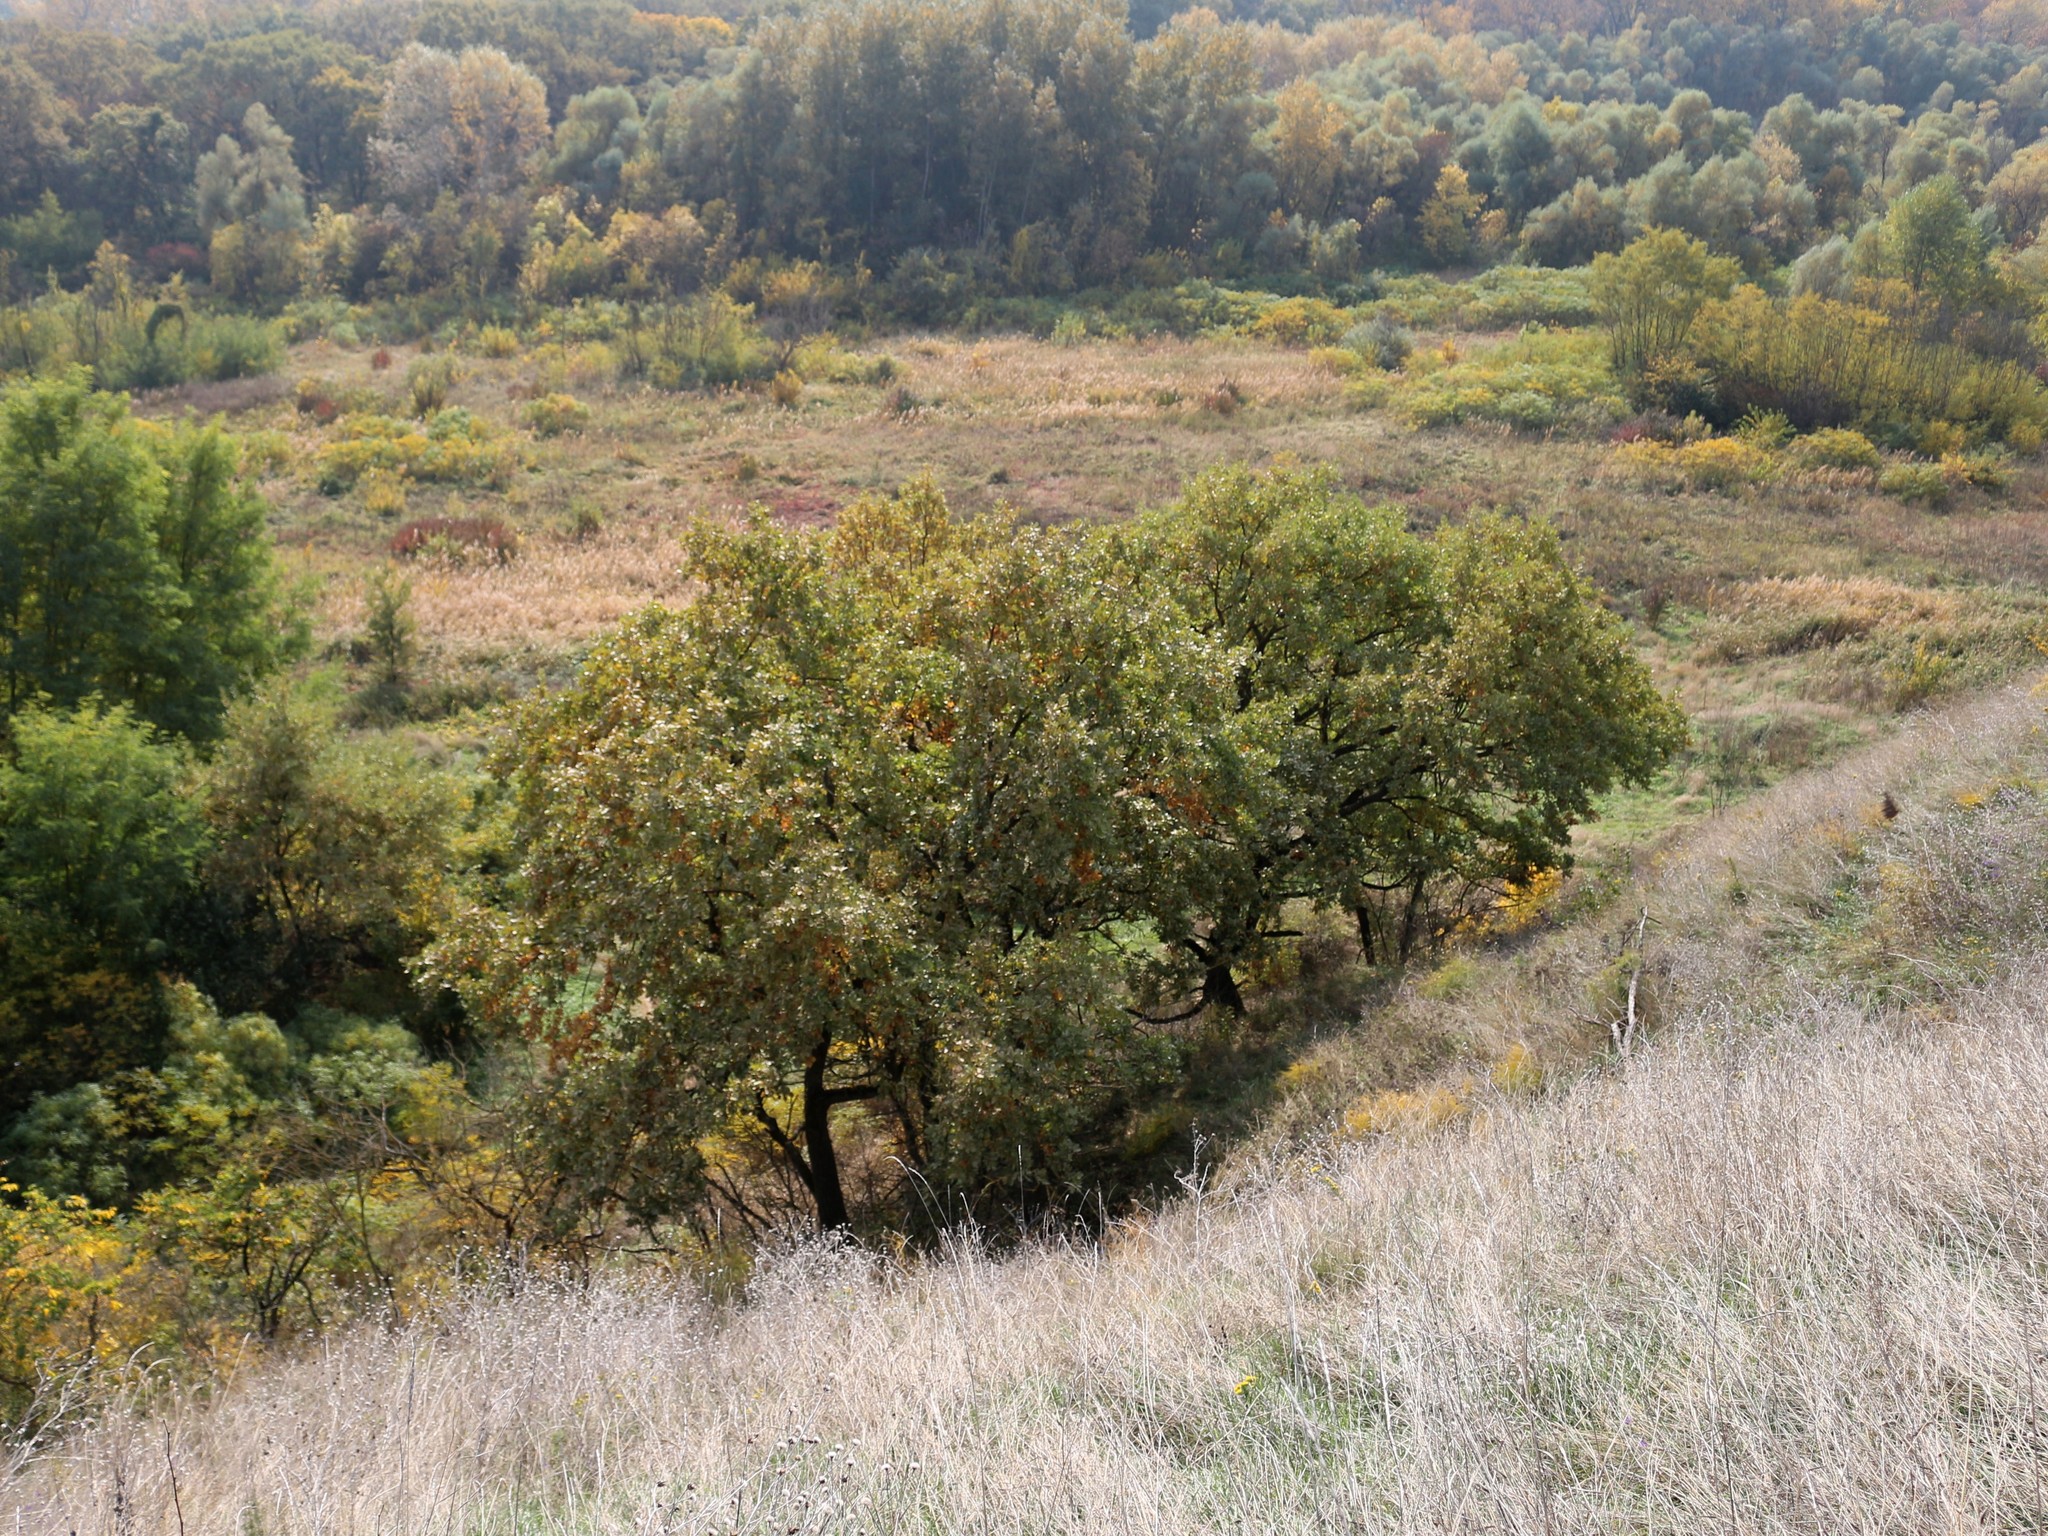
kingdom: Plantae
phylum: Tracheophyta
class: Magnoliopsida
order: Fagales
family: Fagaceae
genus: Quercus
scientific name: Quercus robur
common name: Pedunculate oak
